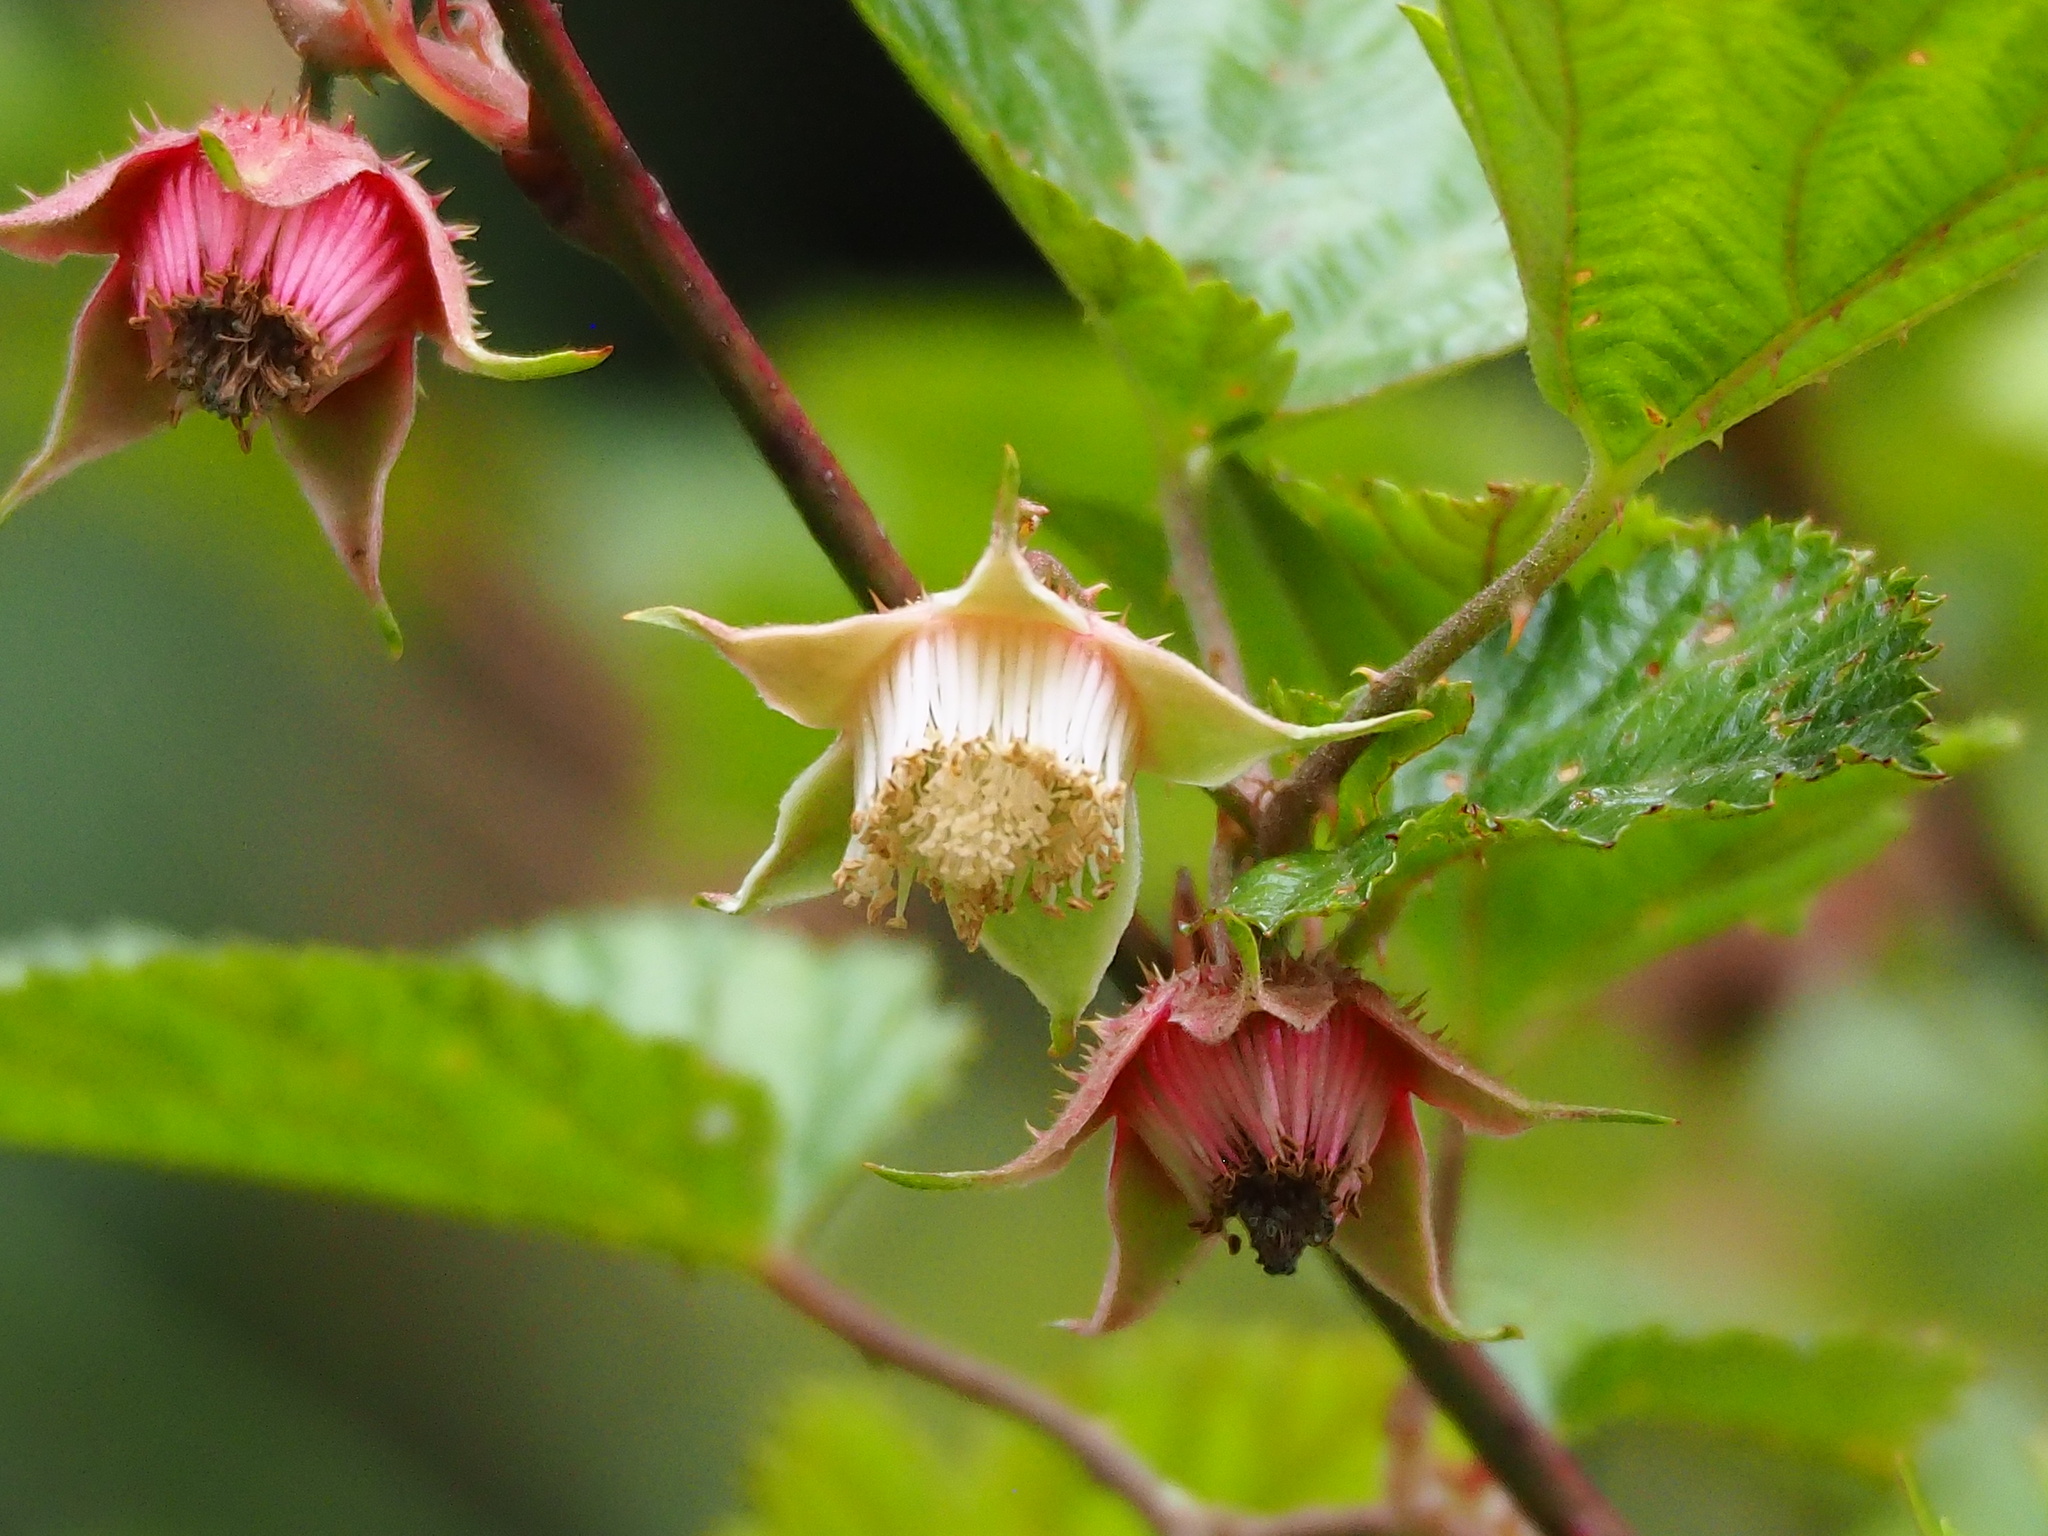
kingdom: Plantae
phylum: Tracheophyta
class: Magnoliopsida
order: Rosales
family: Rosaceae
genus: Rubus
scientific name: Rubus taitoensis
